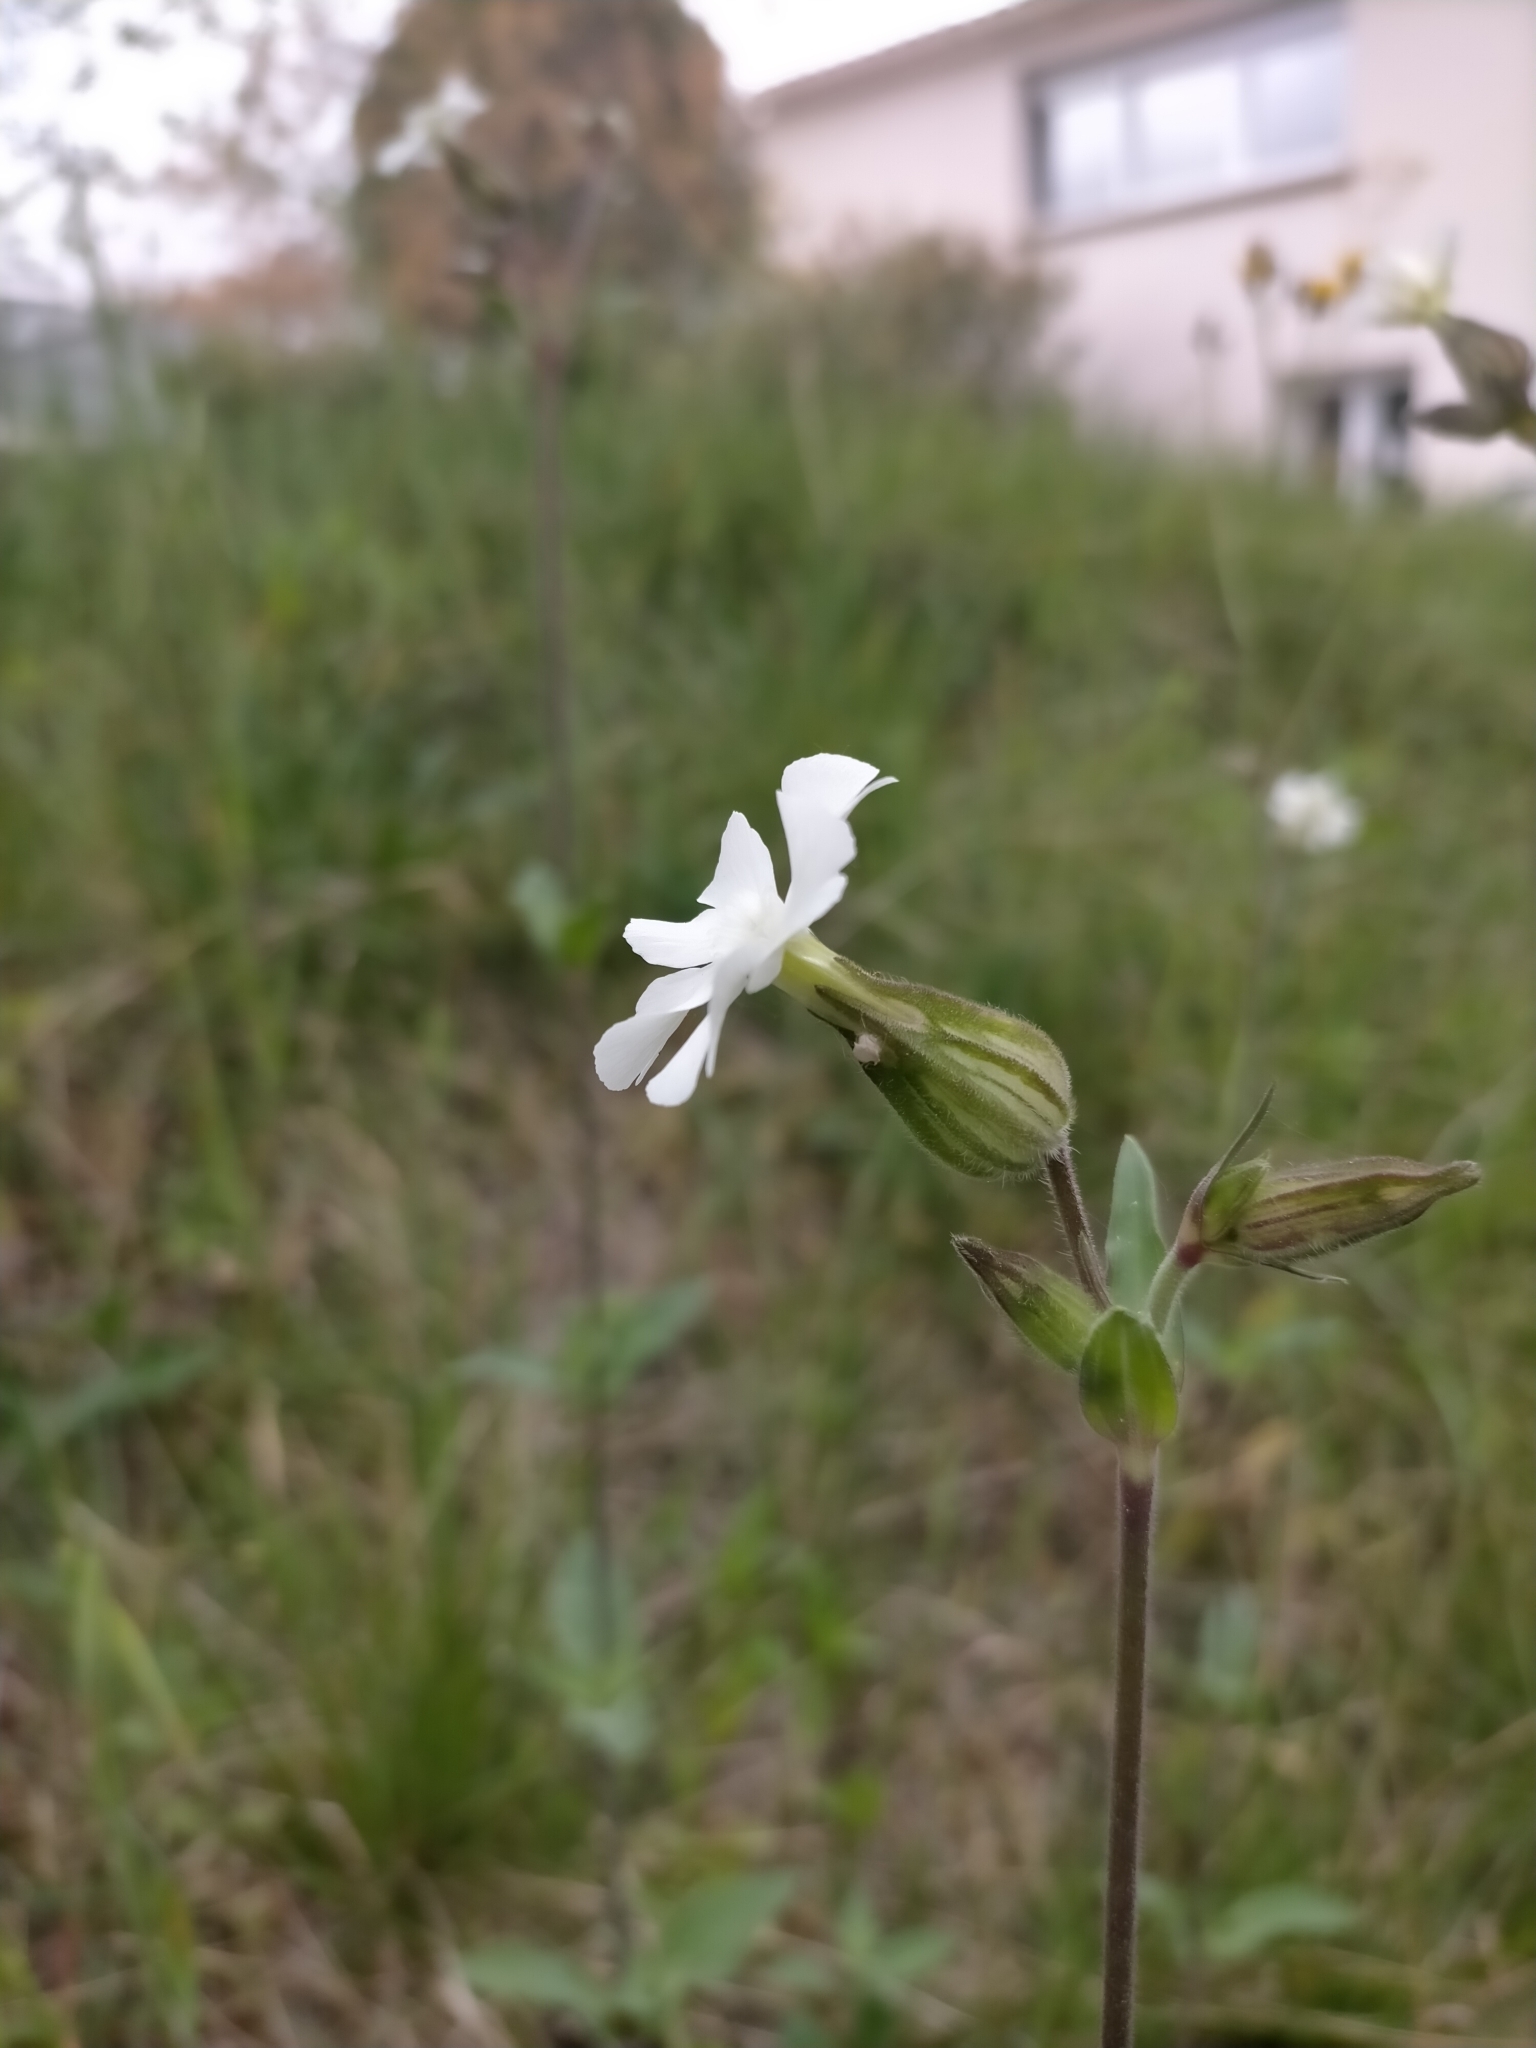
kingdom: Plantae
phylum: Tracheophyta
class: Magnoliopsida
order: Caryophyllales
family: Caryophyllaceae
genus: Silene
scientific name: Silene latifolia
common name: White campion
